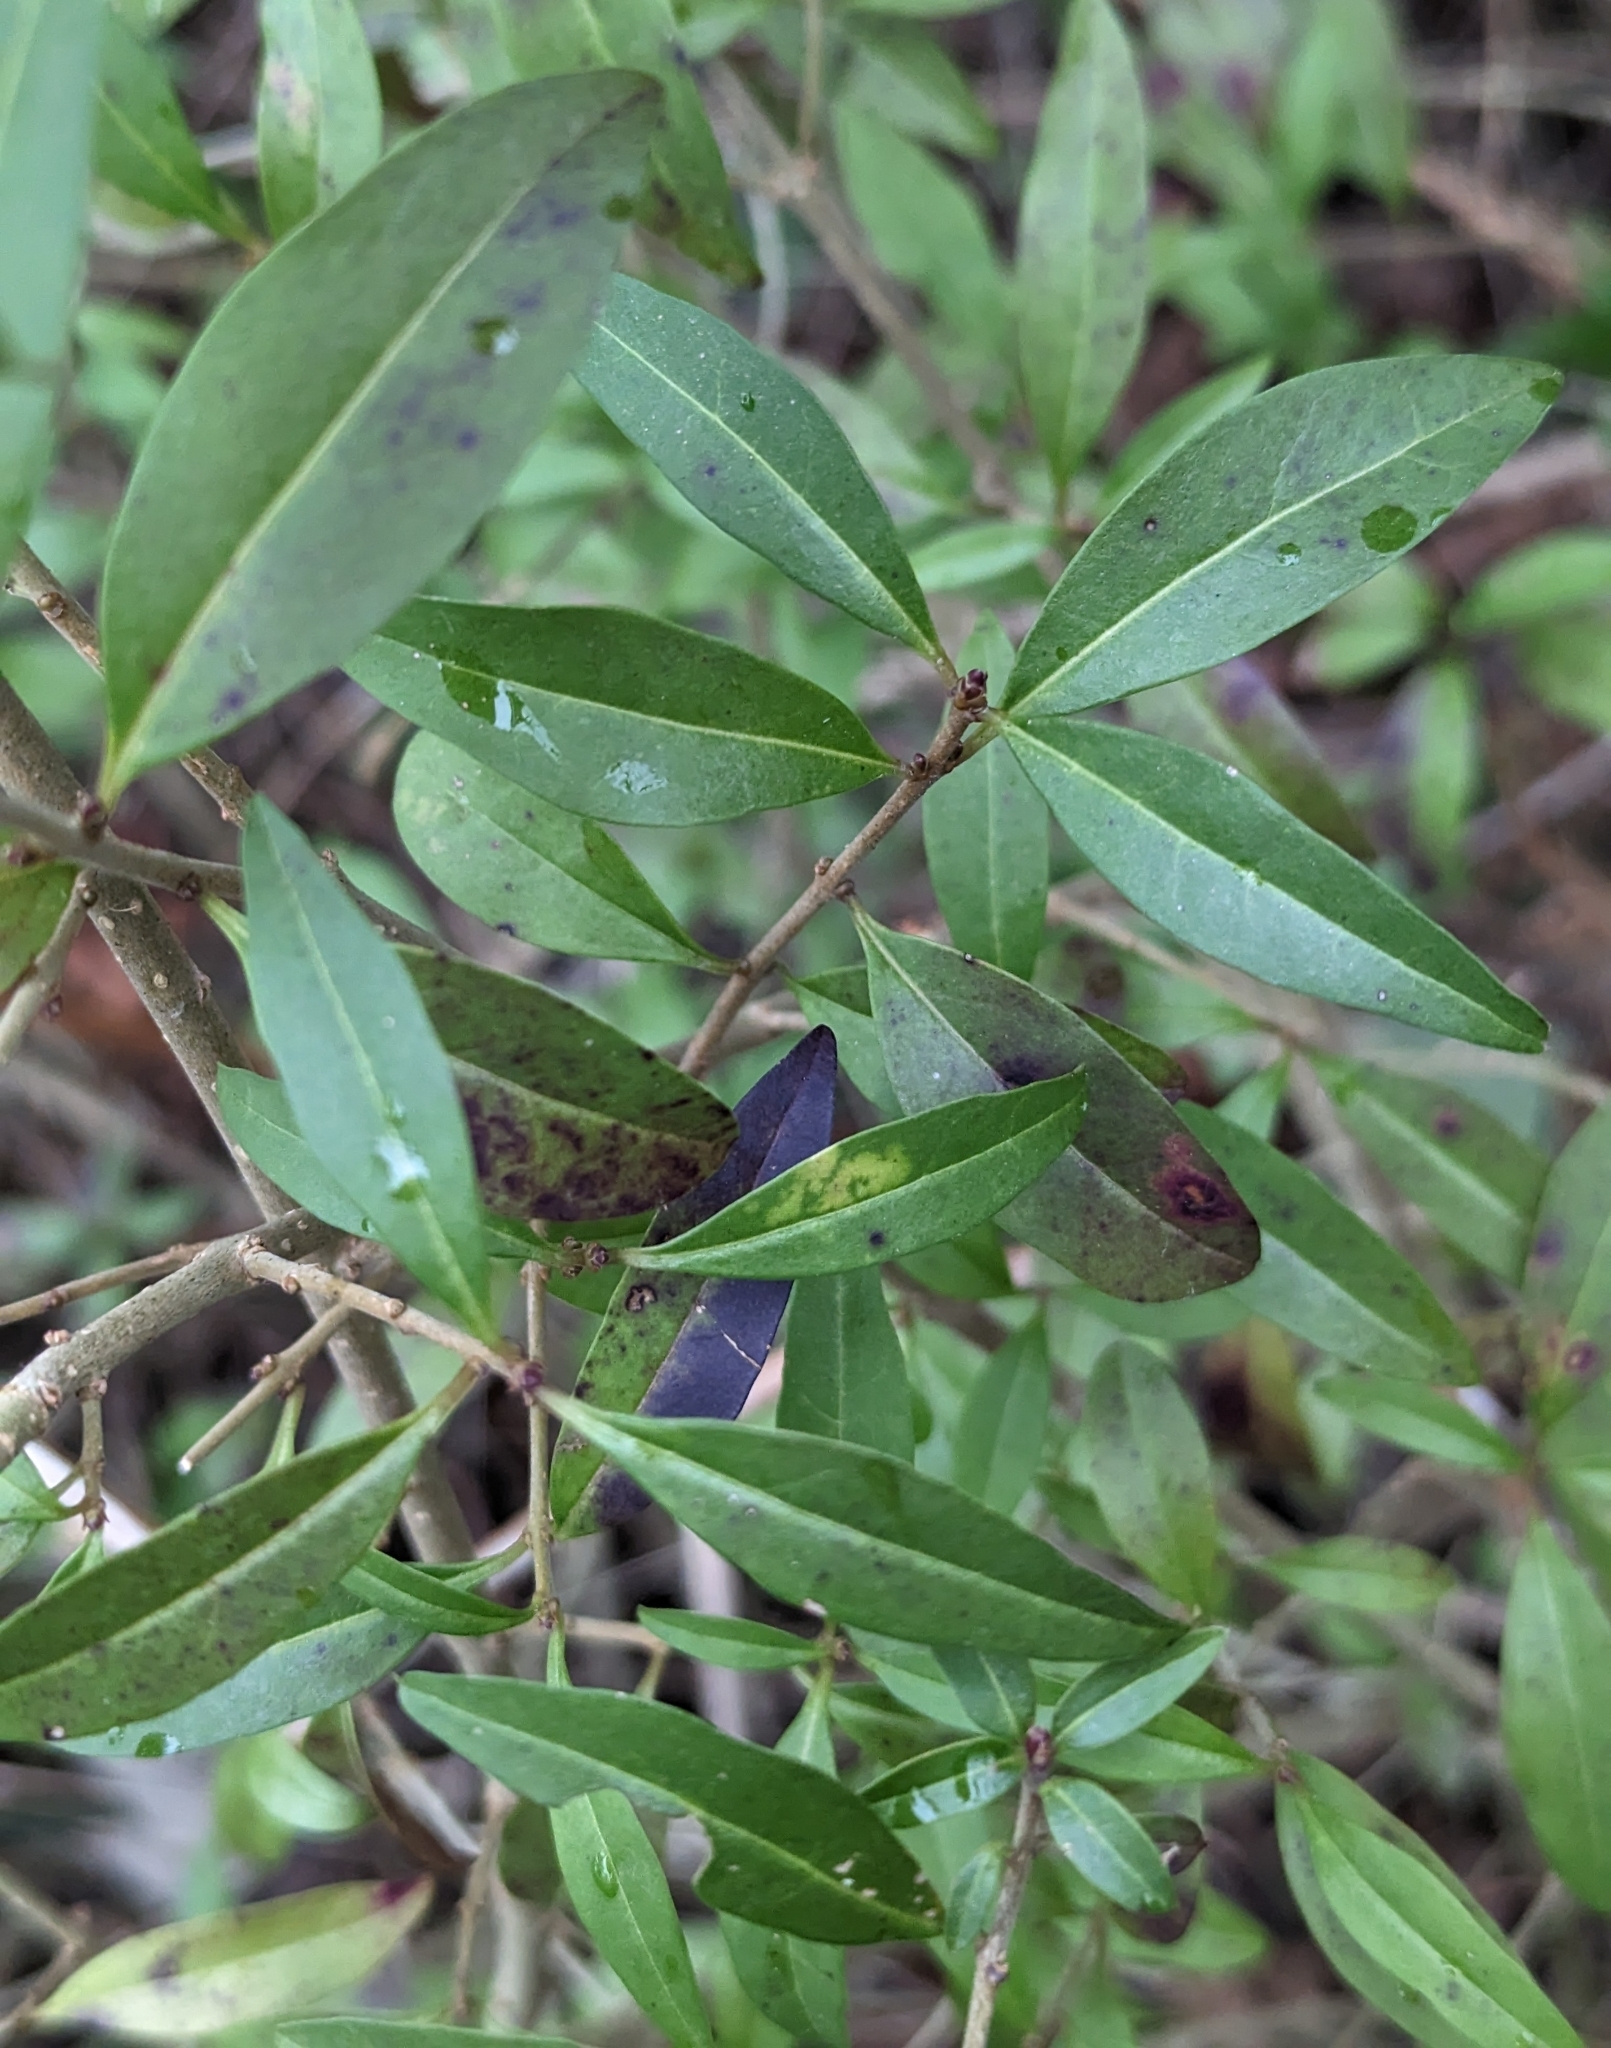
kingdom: Plantae
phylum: Tracheophyta
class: Magnoliopsida
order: Lamiales
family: Oleaceae
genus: Ligustrum
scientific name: Ligustrum vulgare
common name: Wild privet
